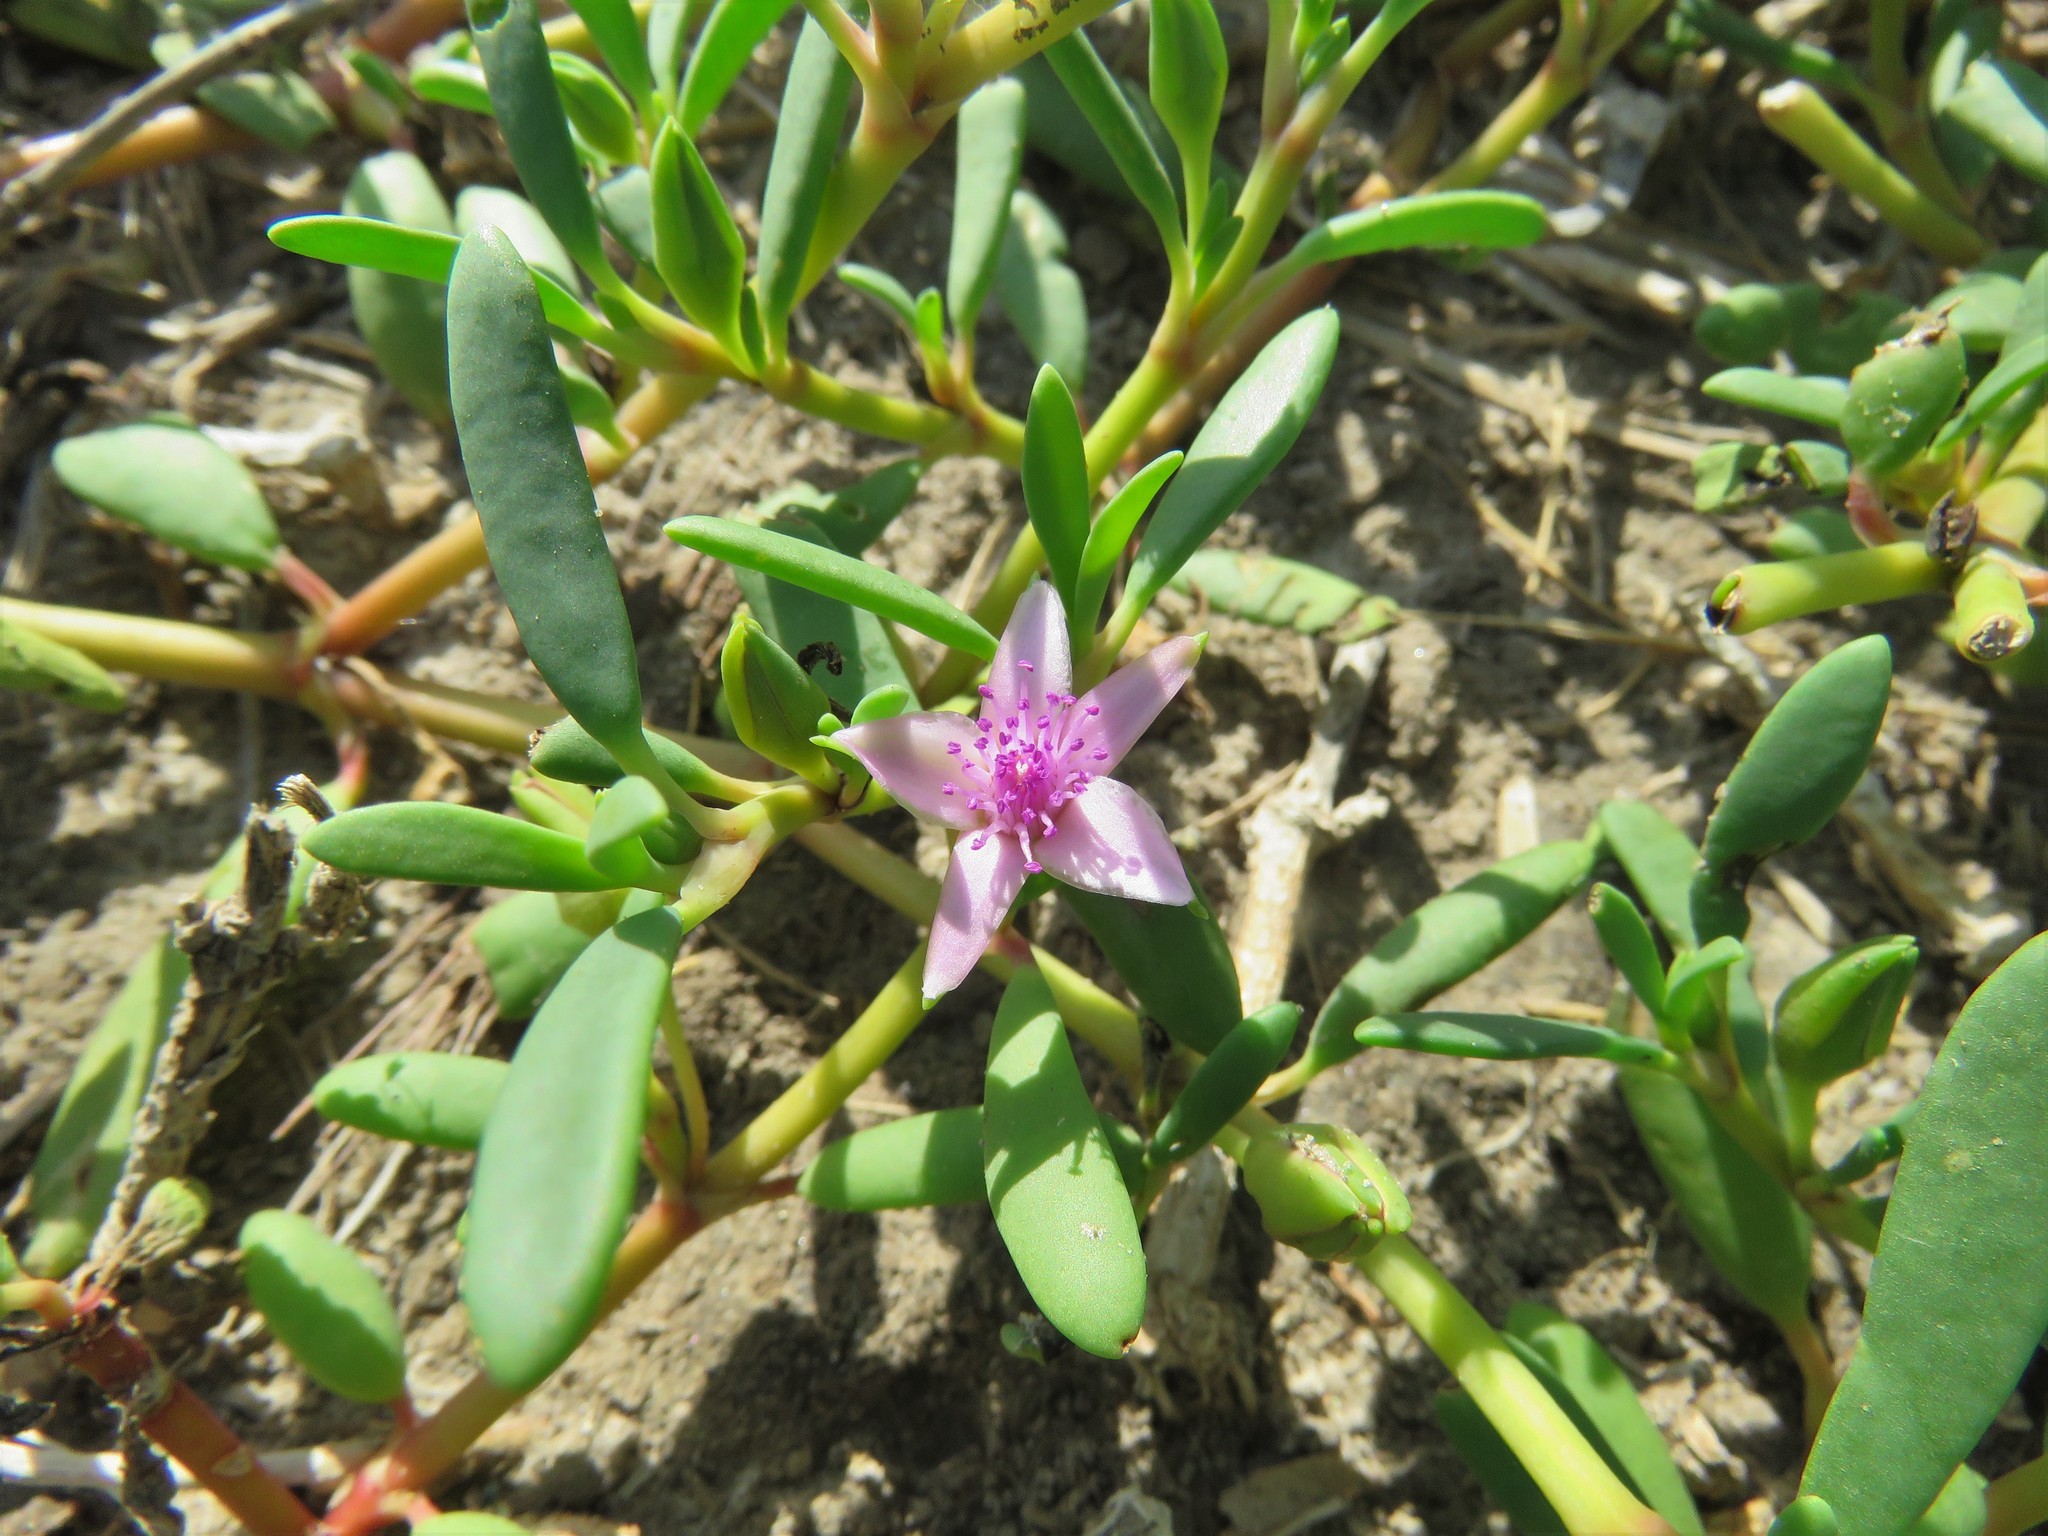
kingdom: Plantae
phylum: Tracheophyta
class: Magnoliopsida
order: Caryophyllales
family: Aizoaceae
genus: Sesuvium
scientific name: Sesuvium portulacastrum
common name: Sea-purslane
